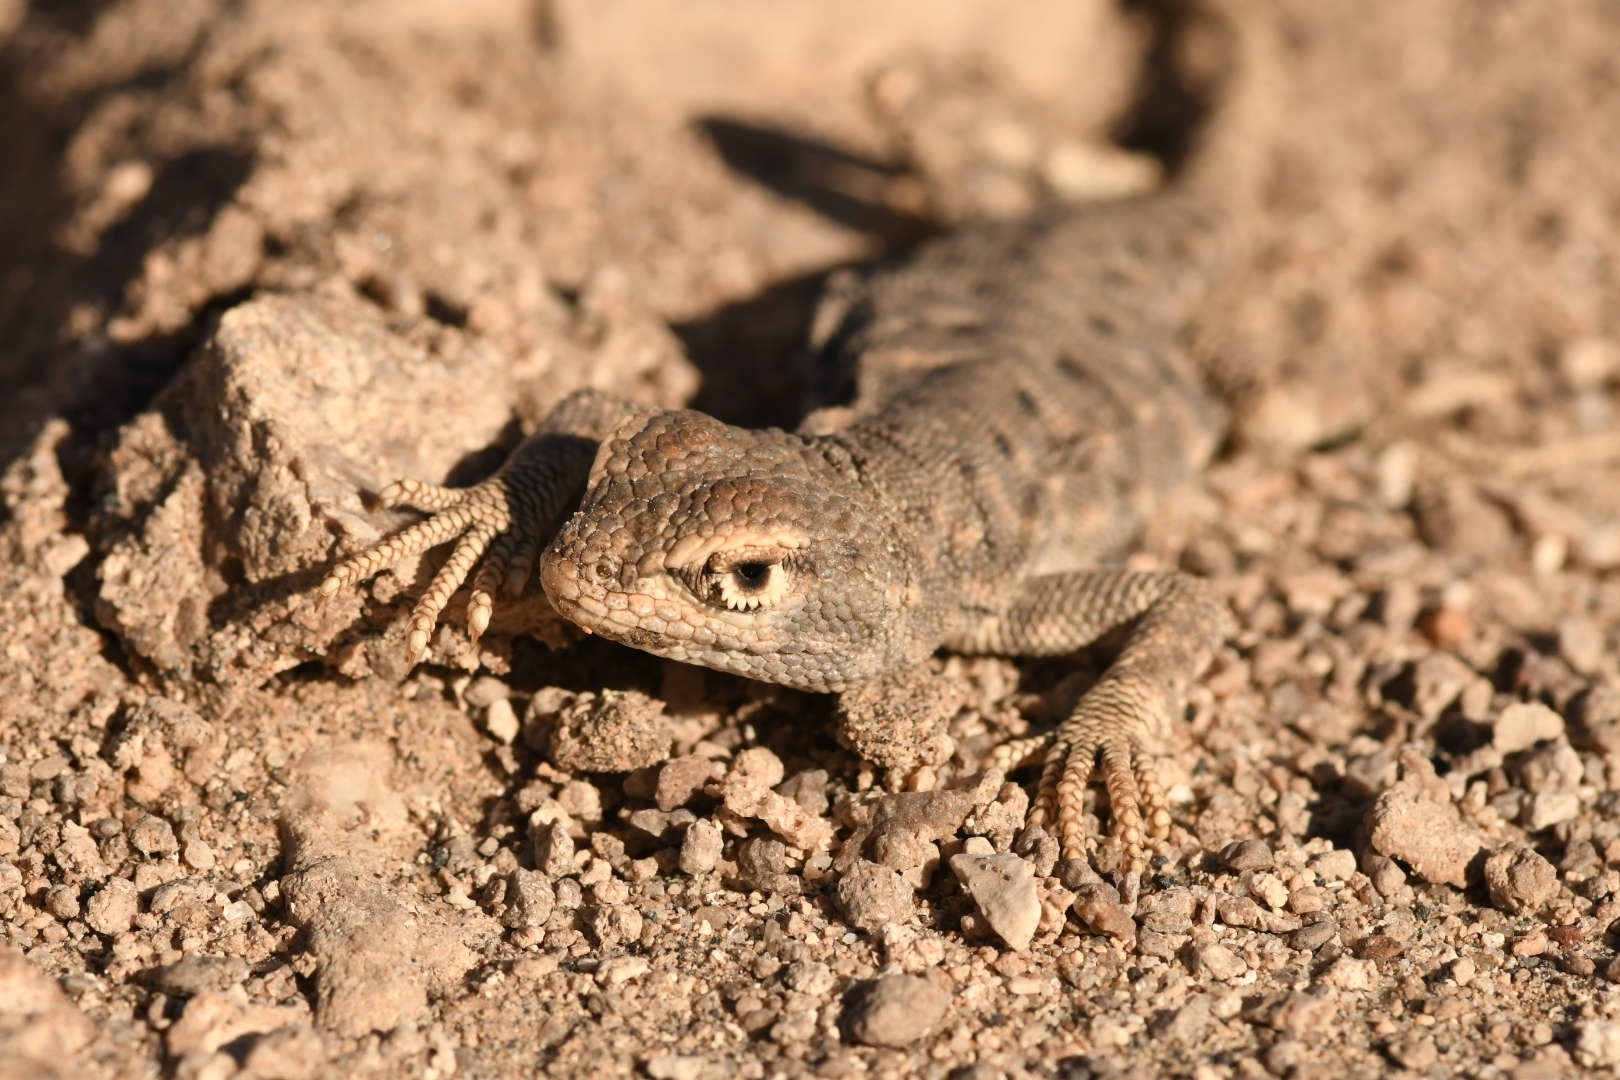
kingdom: Animalia
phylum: Chordata
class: Squamata
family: Liolaemidae
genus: Liolaemus
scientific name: Liolaemus torresi
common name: Dragon of torres-mura
